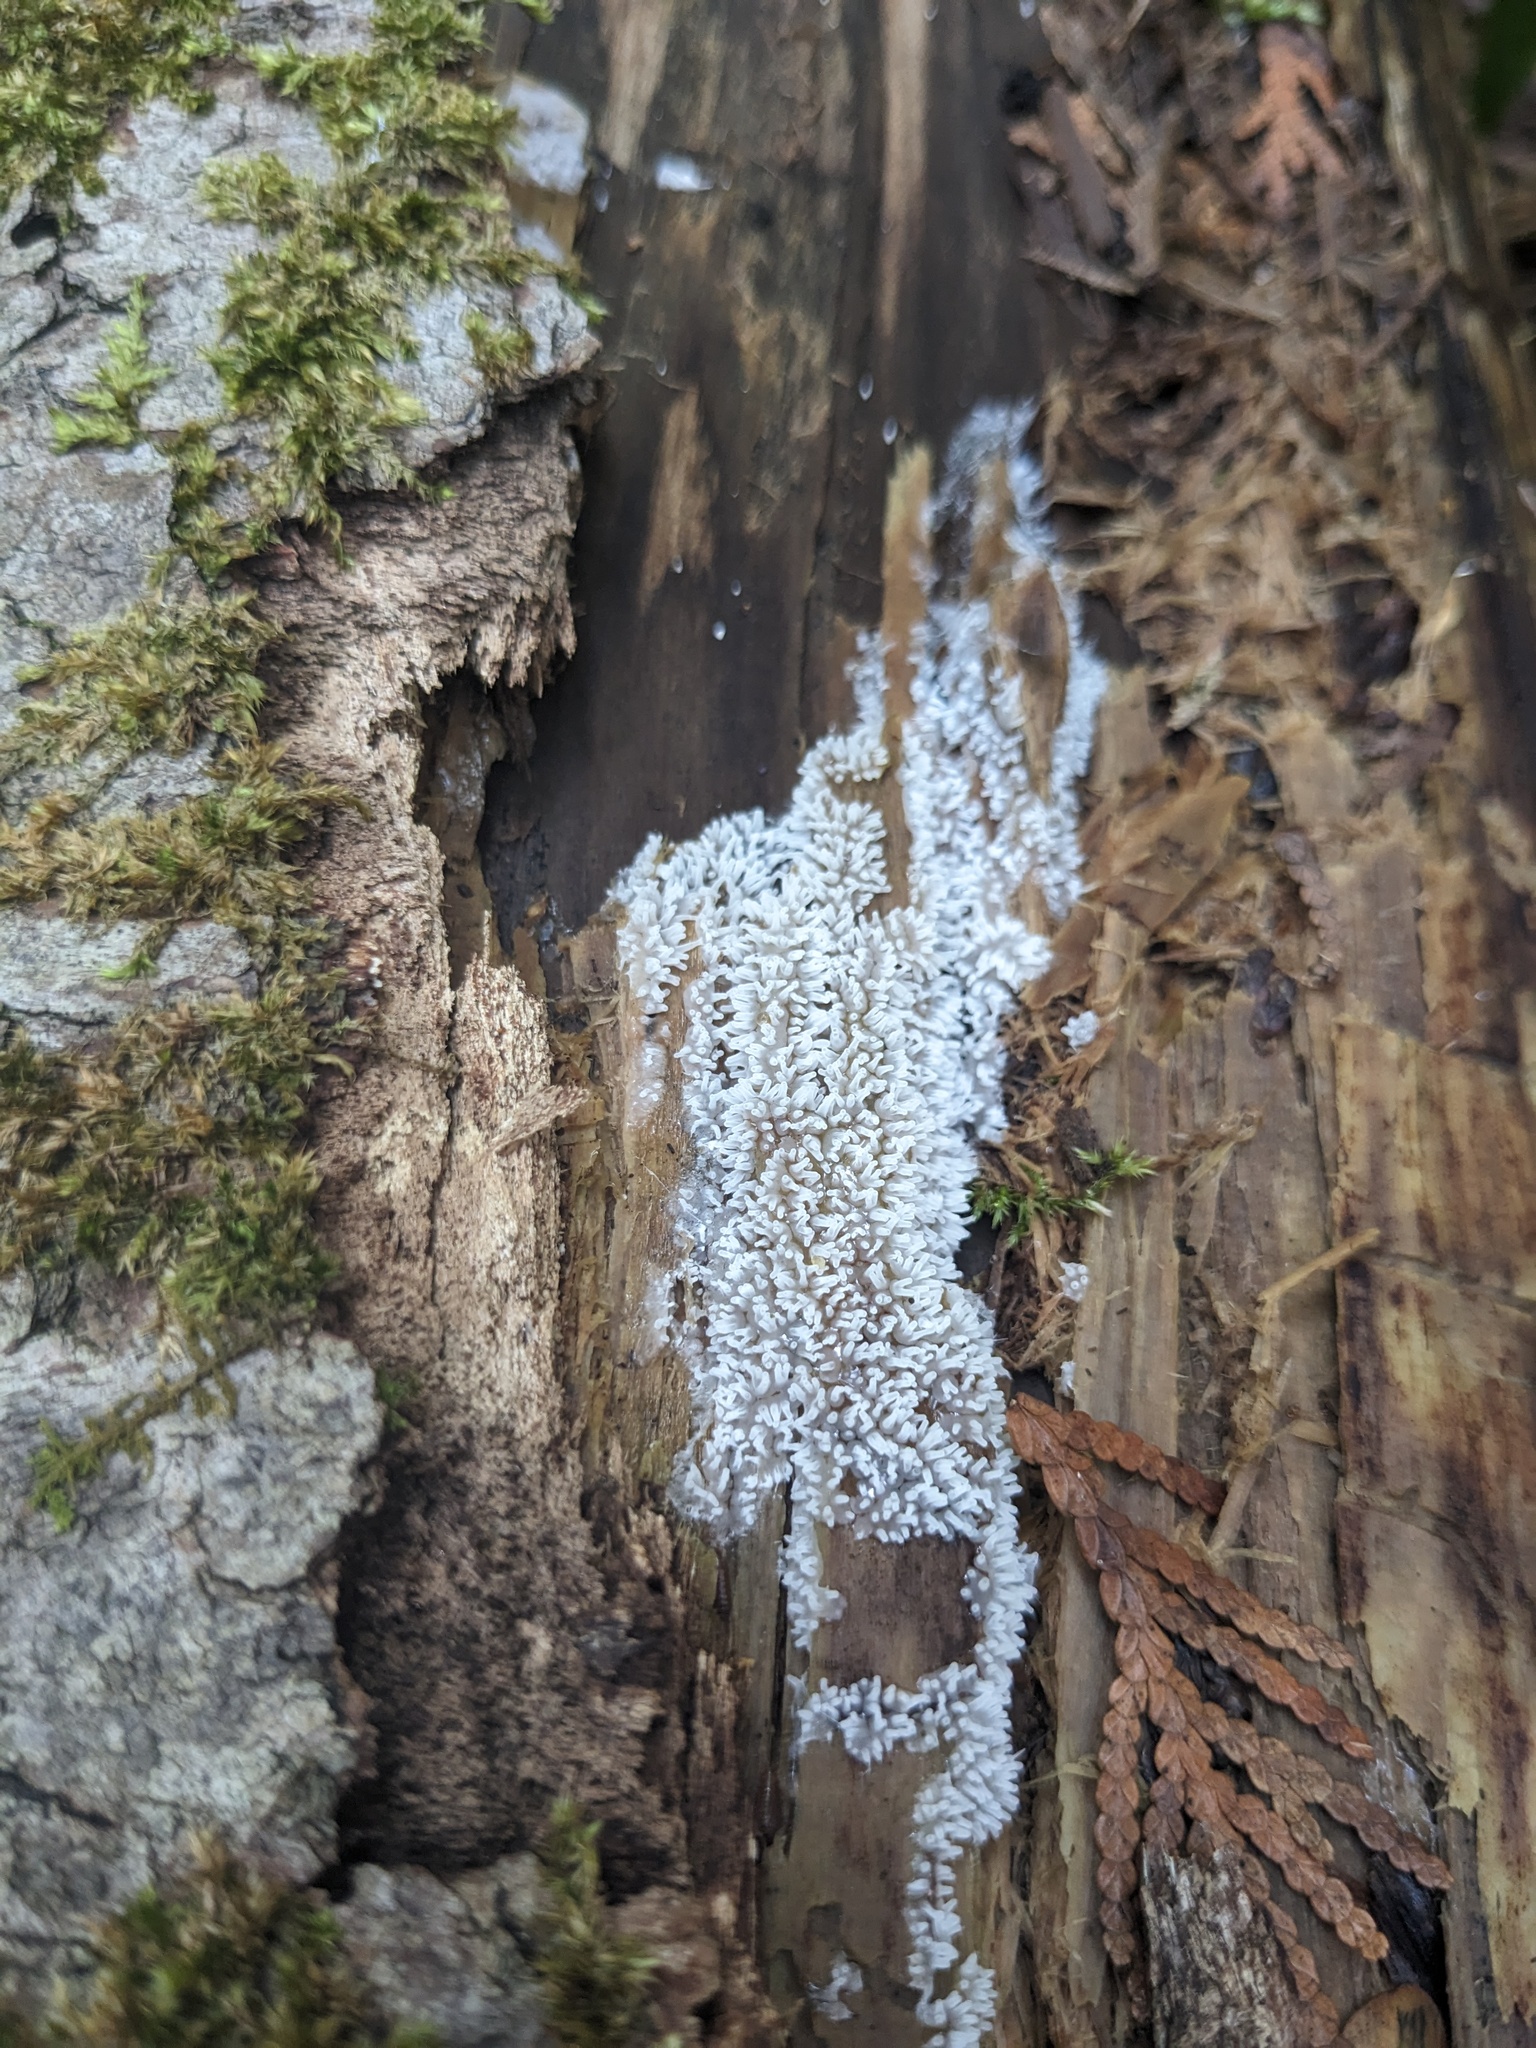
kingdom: Protozoa
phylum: Mycetozoa
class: Protosteliomycetes
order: Ceratiomyxales
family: Ceratiomyxaceae
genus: Ceratiomyxa
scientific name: Ceratiomyxa fruticulosa
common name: Honeycomb coral slime mold
